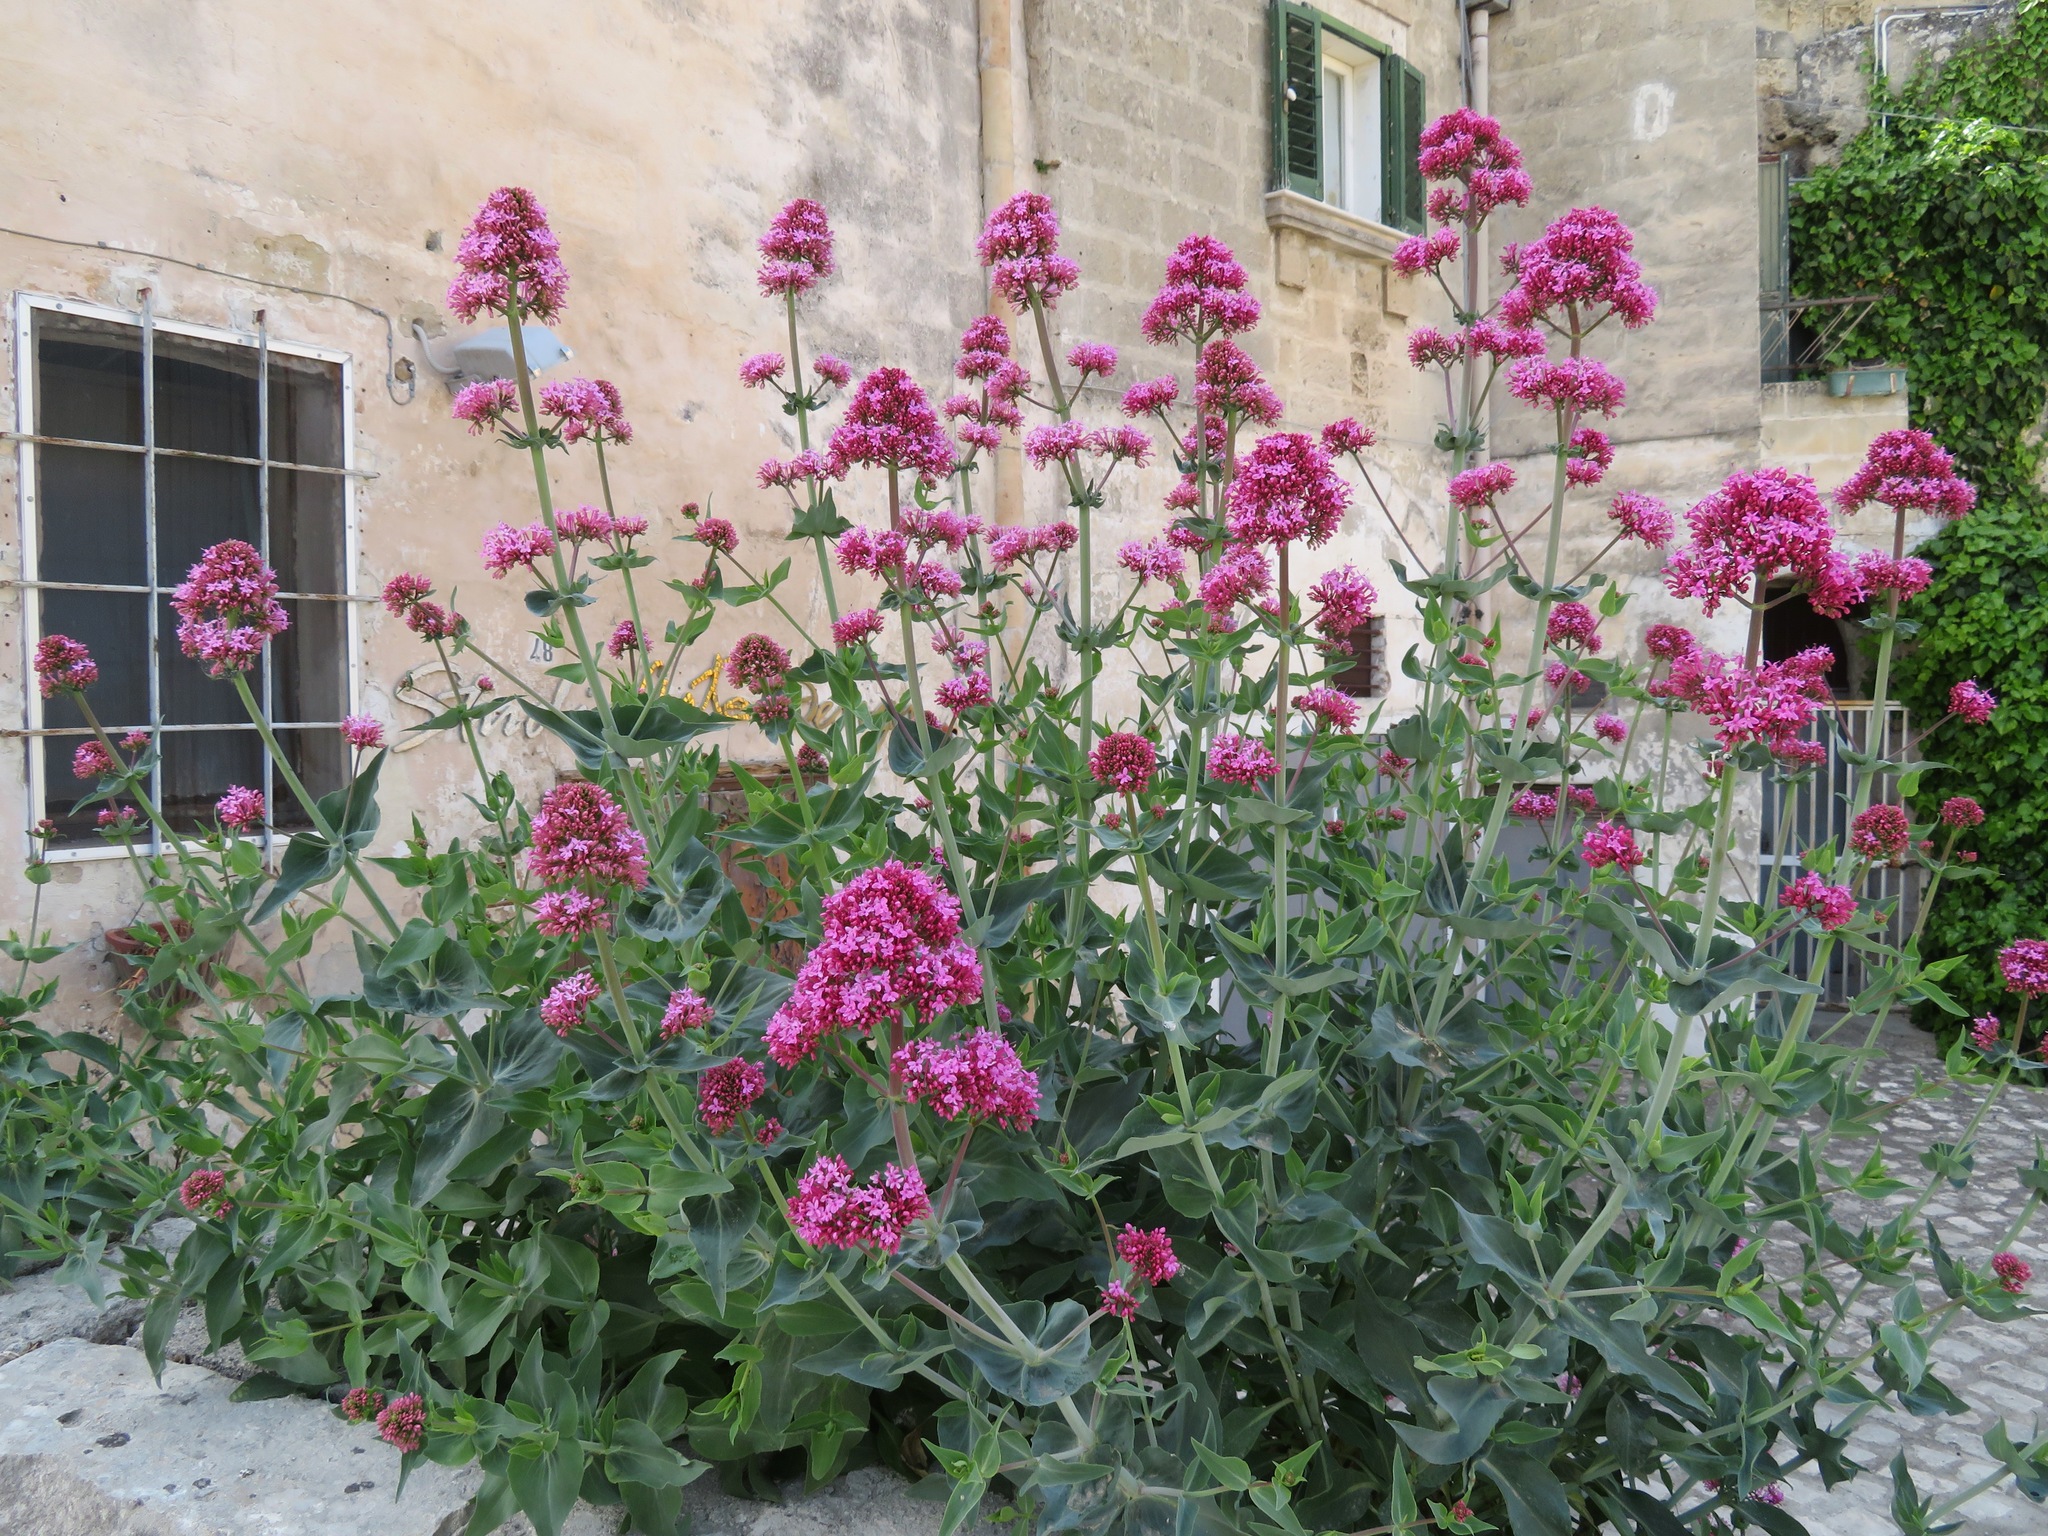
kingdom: Plantae
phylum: Tracheophyta
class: Magnoliopsida
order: Dipsacales
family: Caprifoliaceae
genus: Centranthus
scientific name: Centranthus ruber
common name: Red valerian
